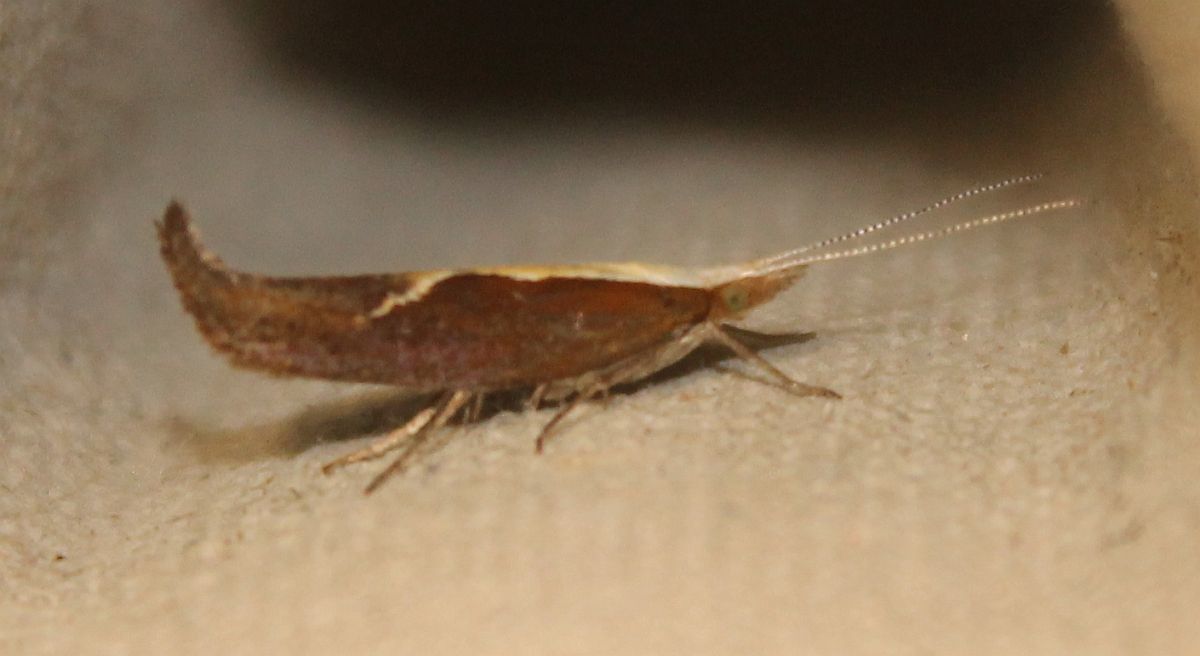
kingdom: Animalia
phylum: Arthropoda
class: Insecta
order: Lepidoptera
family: Ypsolophidae
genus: Ypsolopha
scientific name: Ypsolopha dentella
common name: Honeysuckle moth
